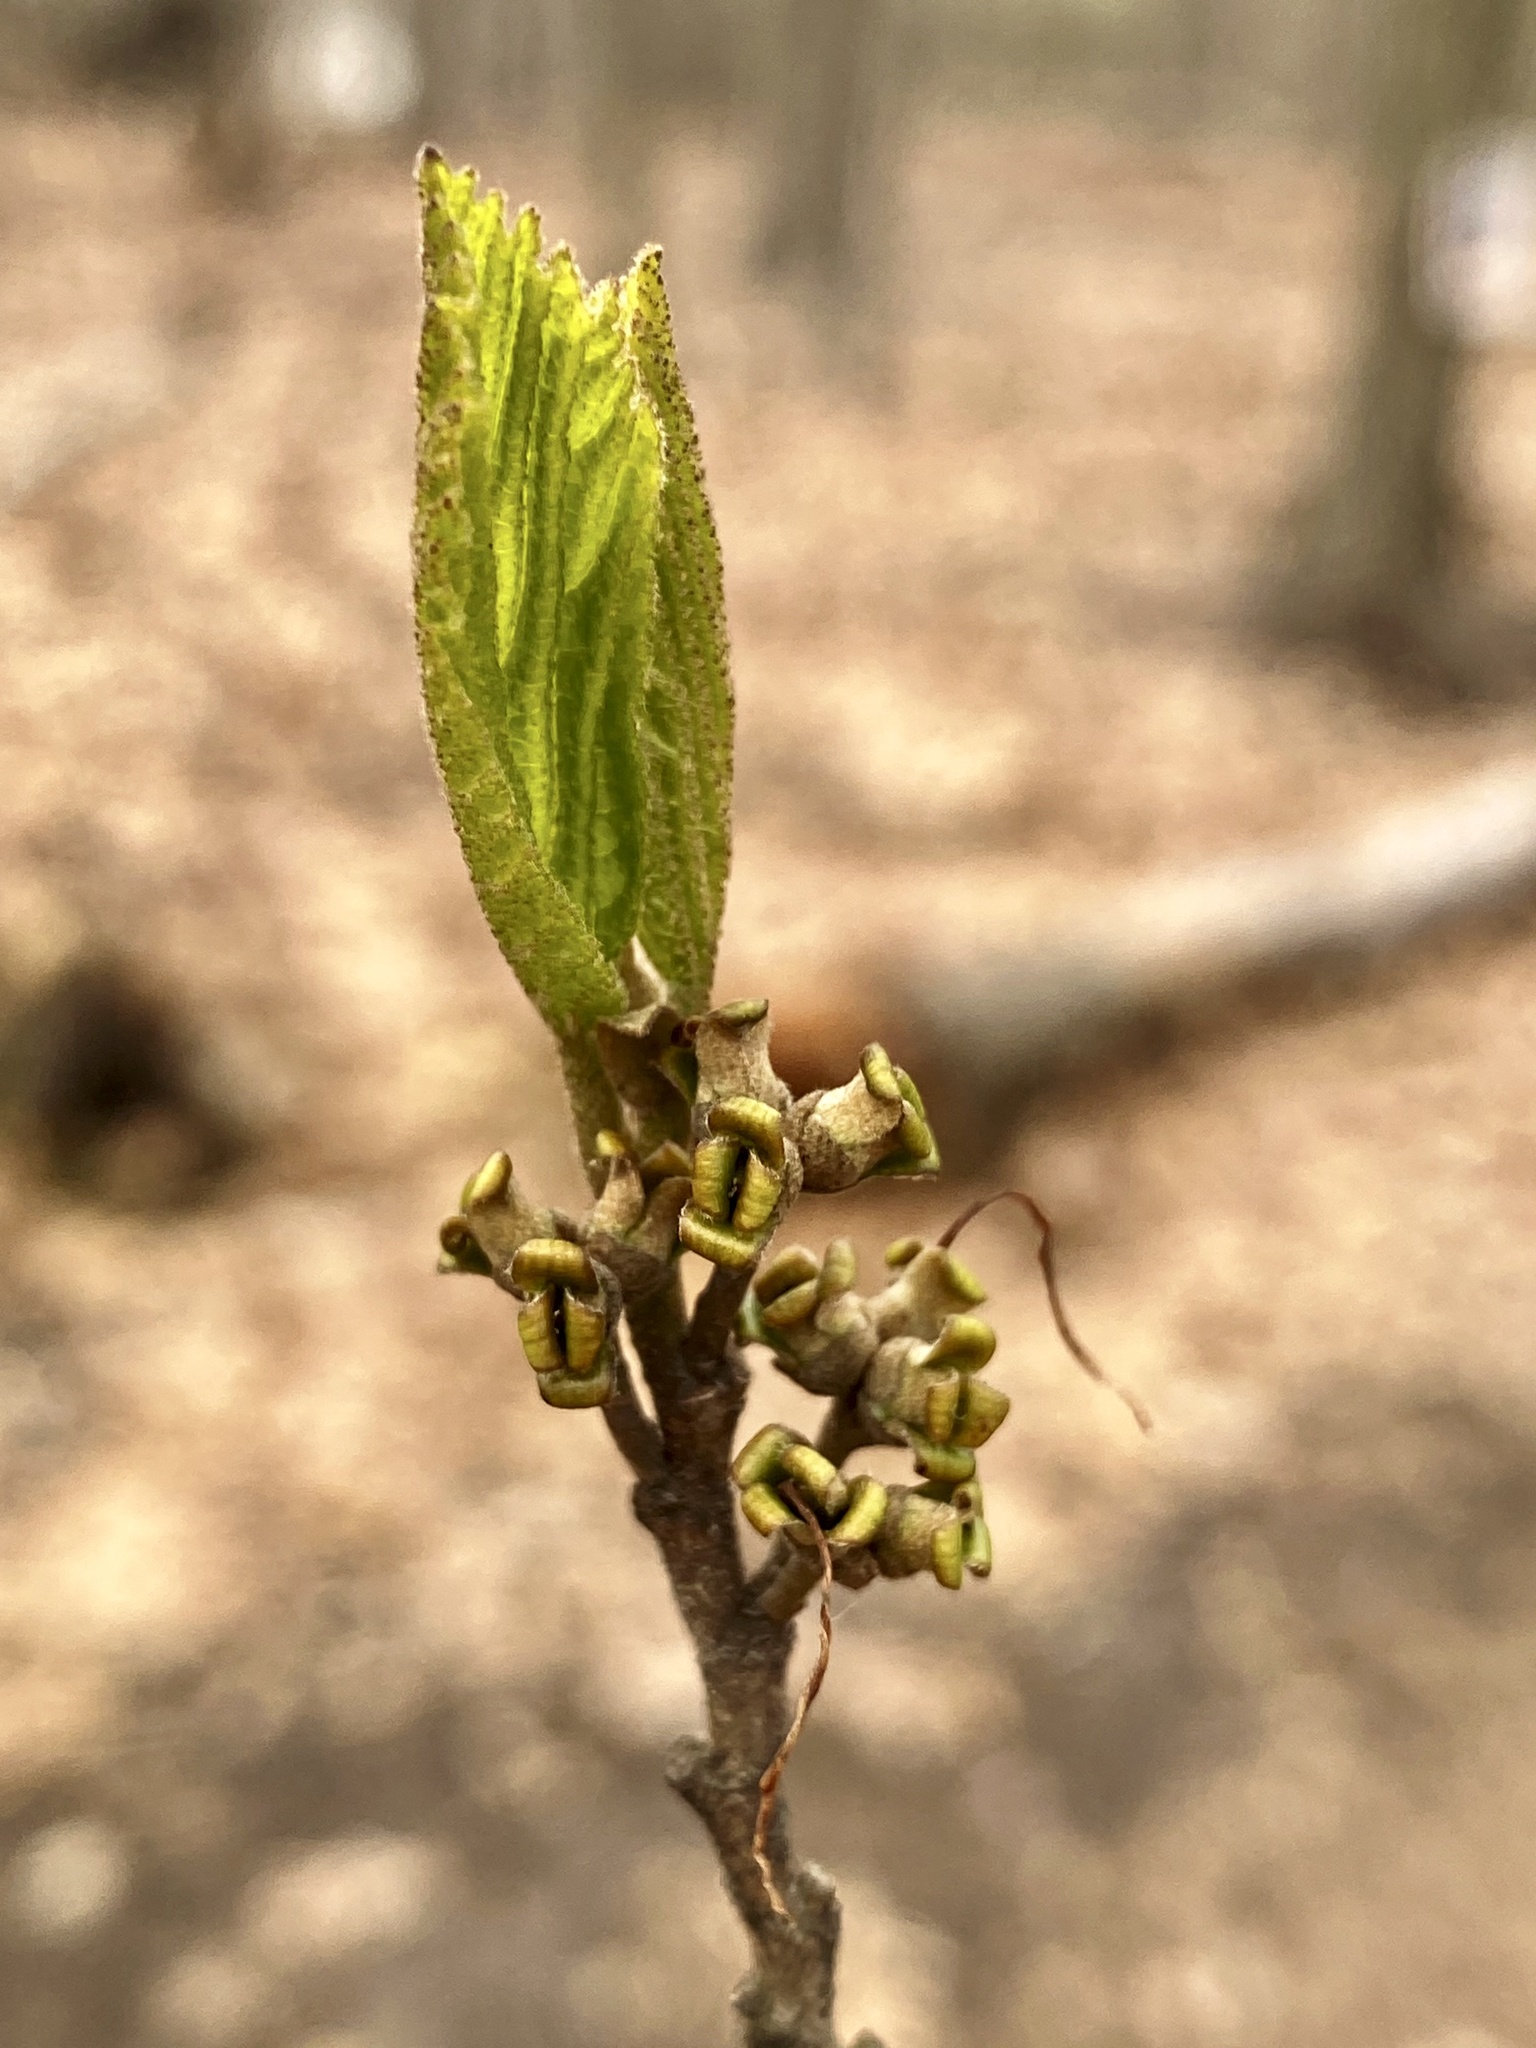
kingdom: Plantae
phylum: Tracheophyta
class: Magnoliopsida
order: Saxifragales
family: Hamamelidaceae
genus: Hamamelis
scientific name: Hamamelis virginiana
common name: Witch-hazel
